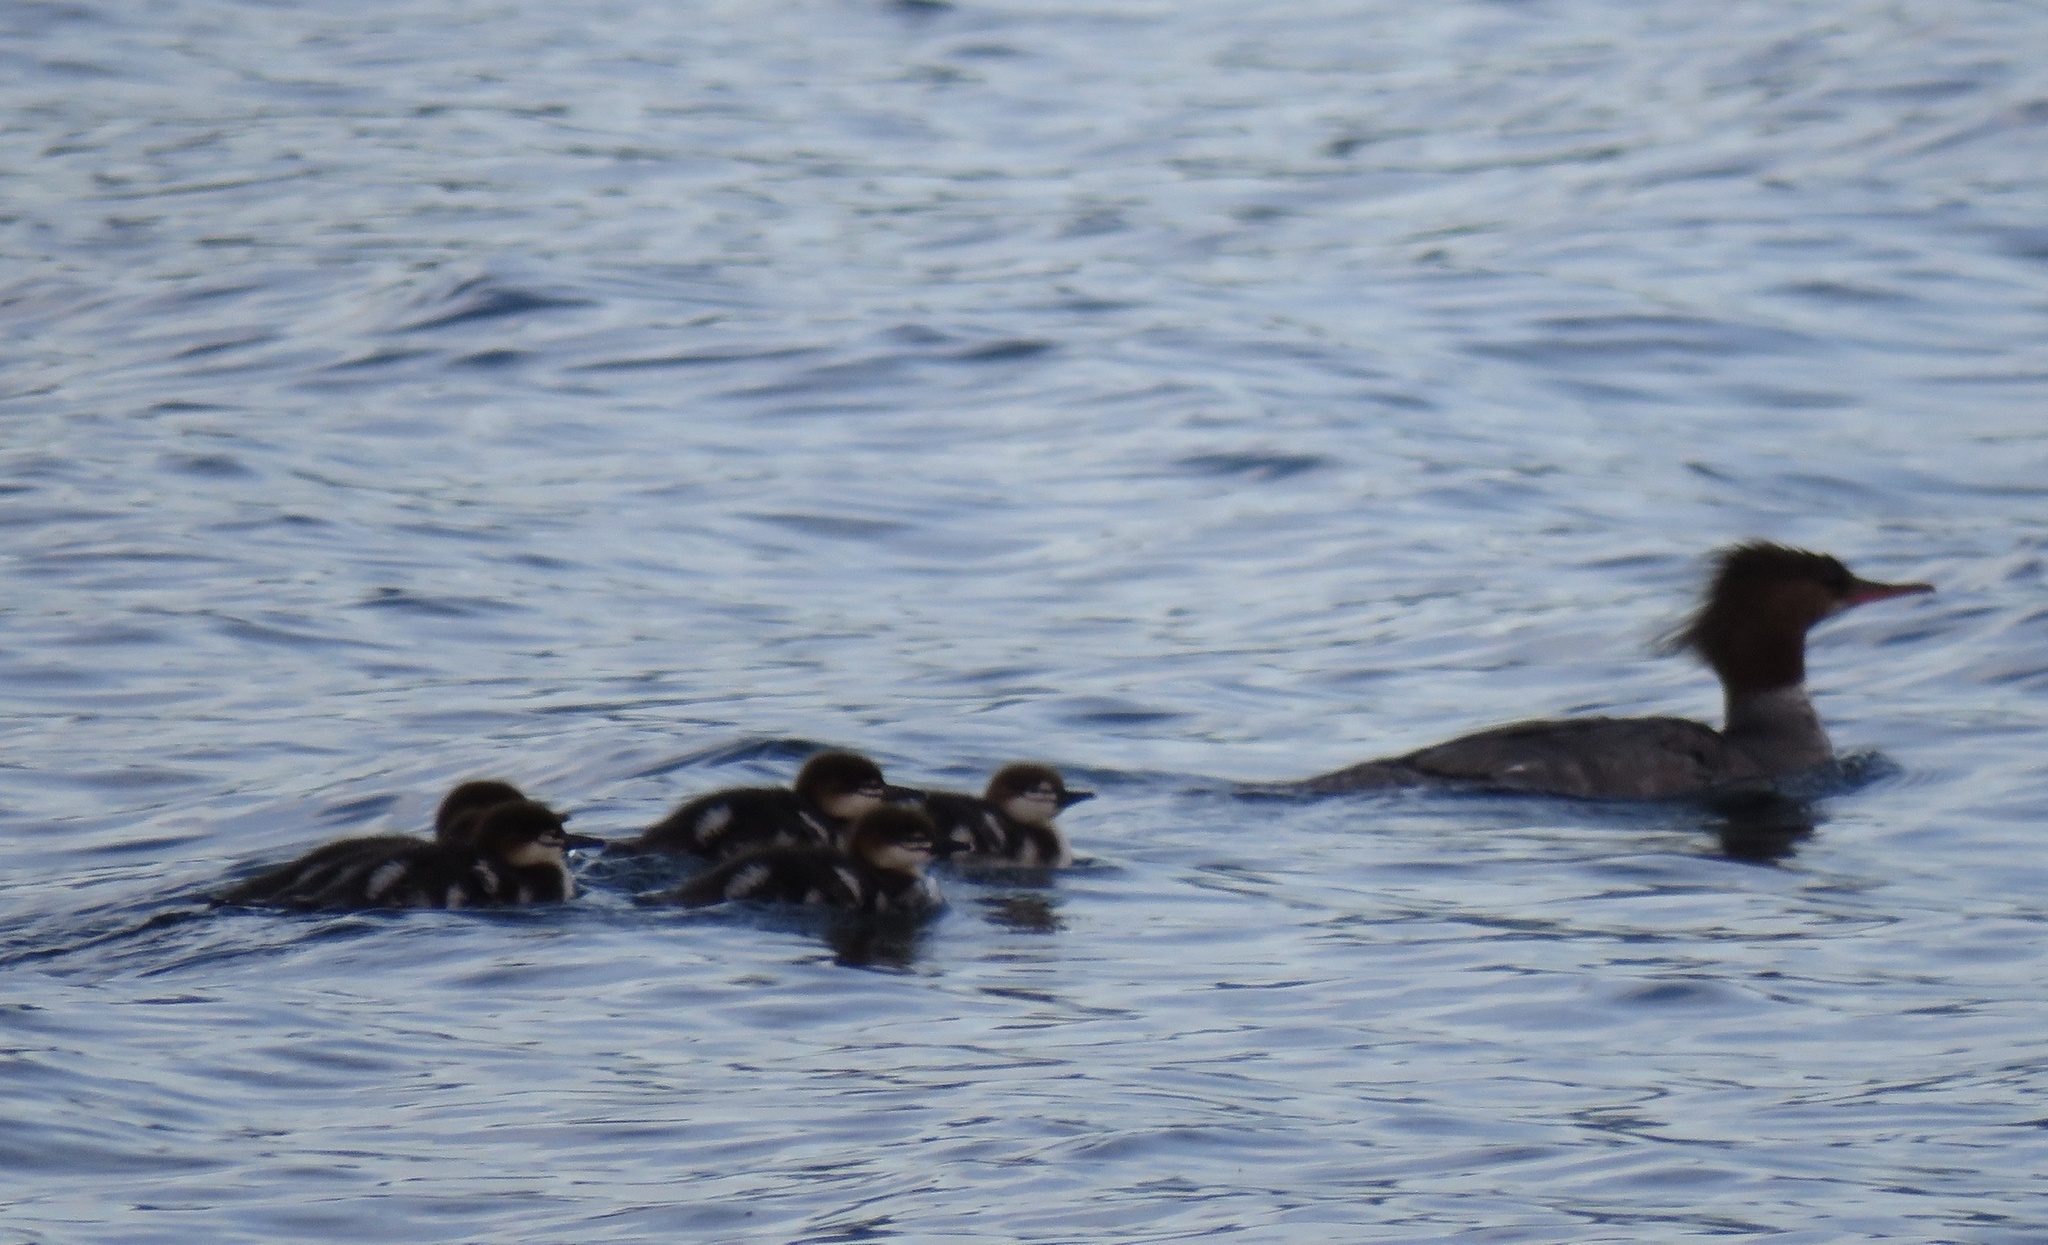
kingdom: Animalia
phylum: Chordata
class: Aves
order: Anseriformes
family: Anatidae
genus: Mergus
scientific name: Mergus merganser
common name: Common merganser
